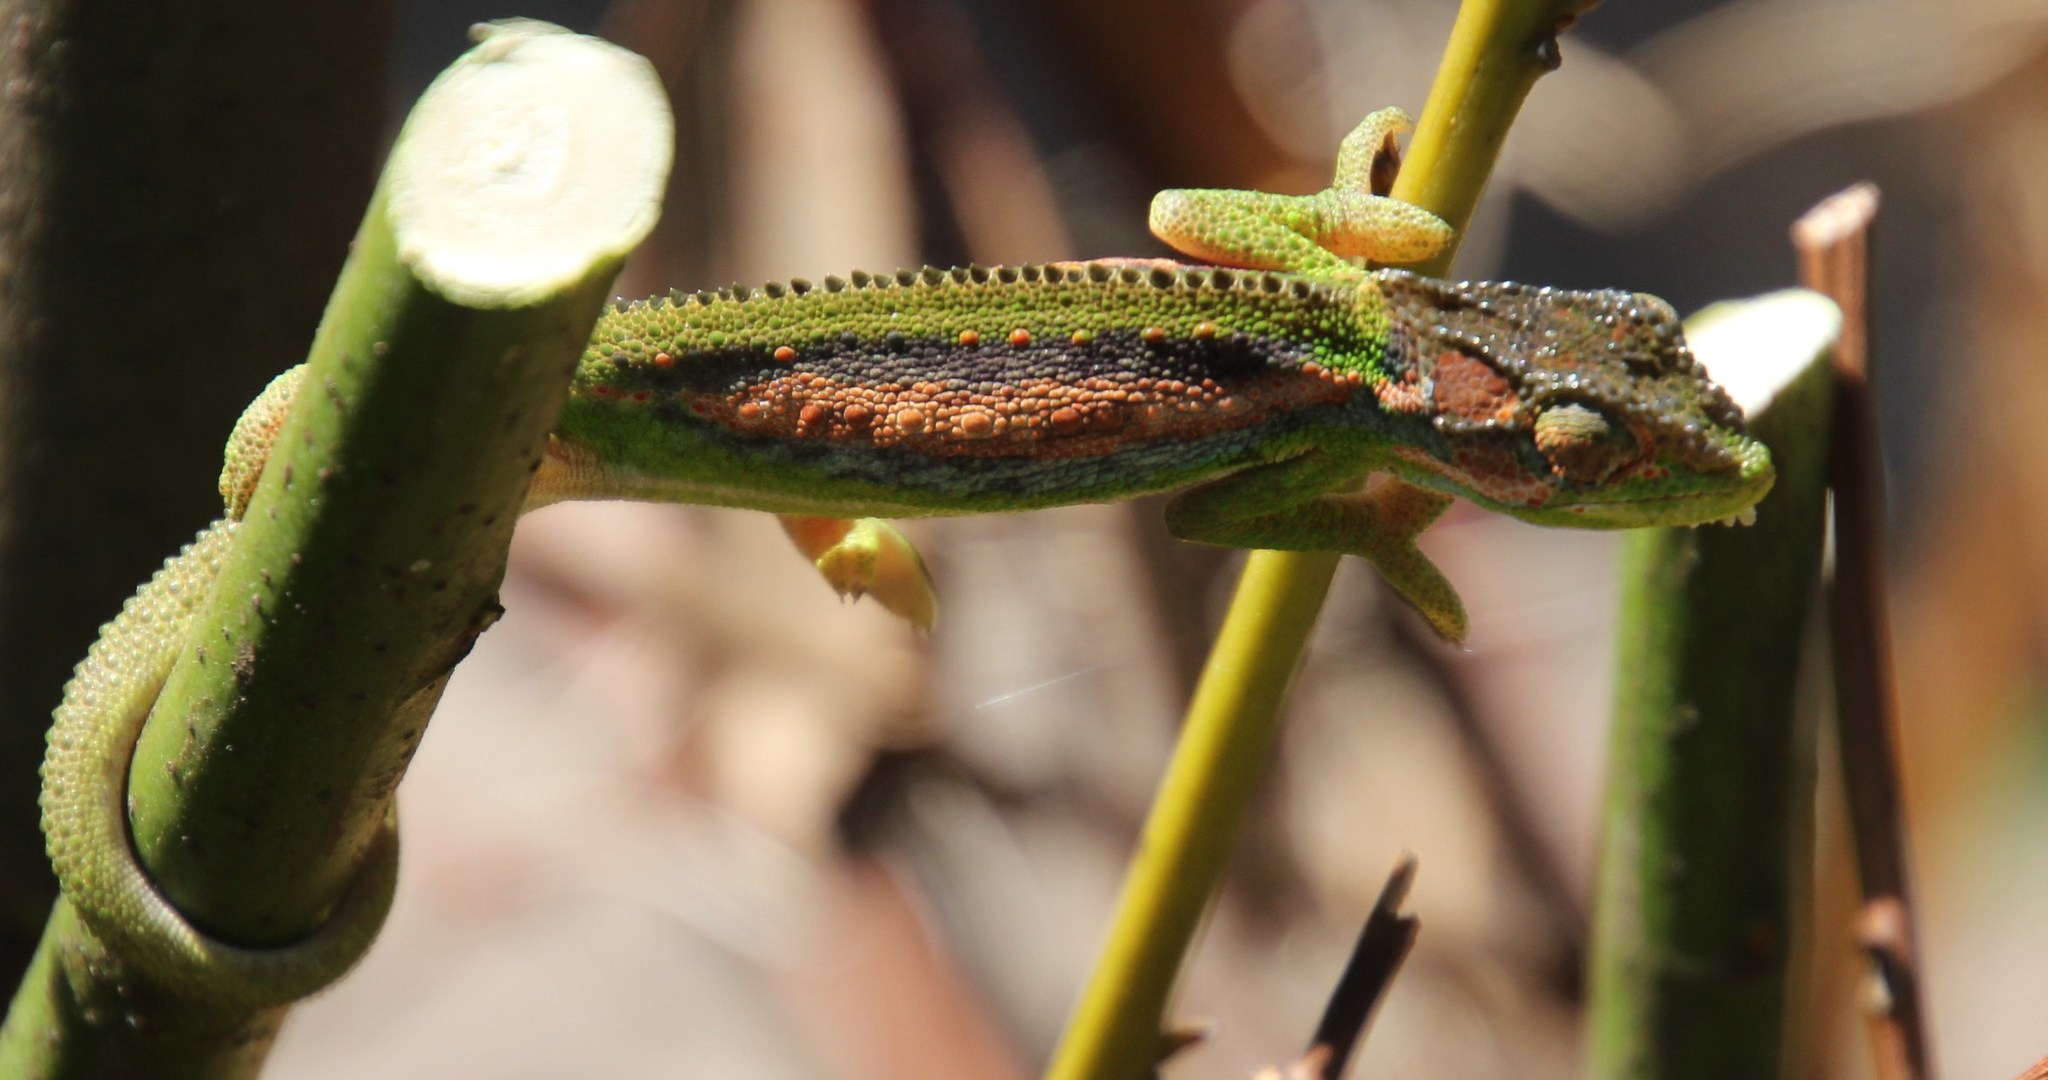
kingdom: Animalia
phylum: Chordata
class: Squamata
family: Chamaeleonidae
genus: Bradypodion
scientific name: Bradypodion pumilum
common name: Cape dwarf chameleon
